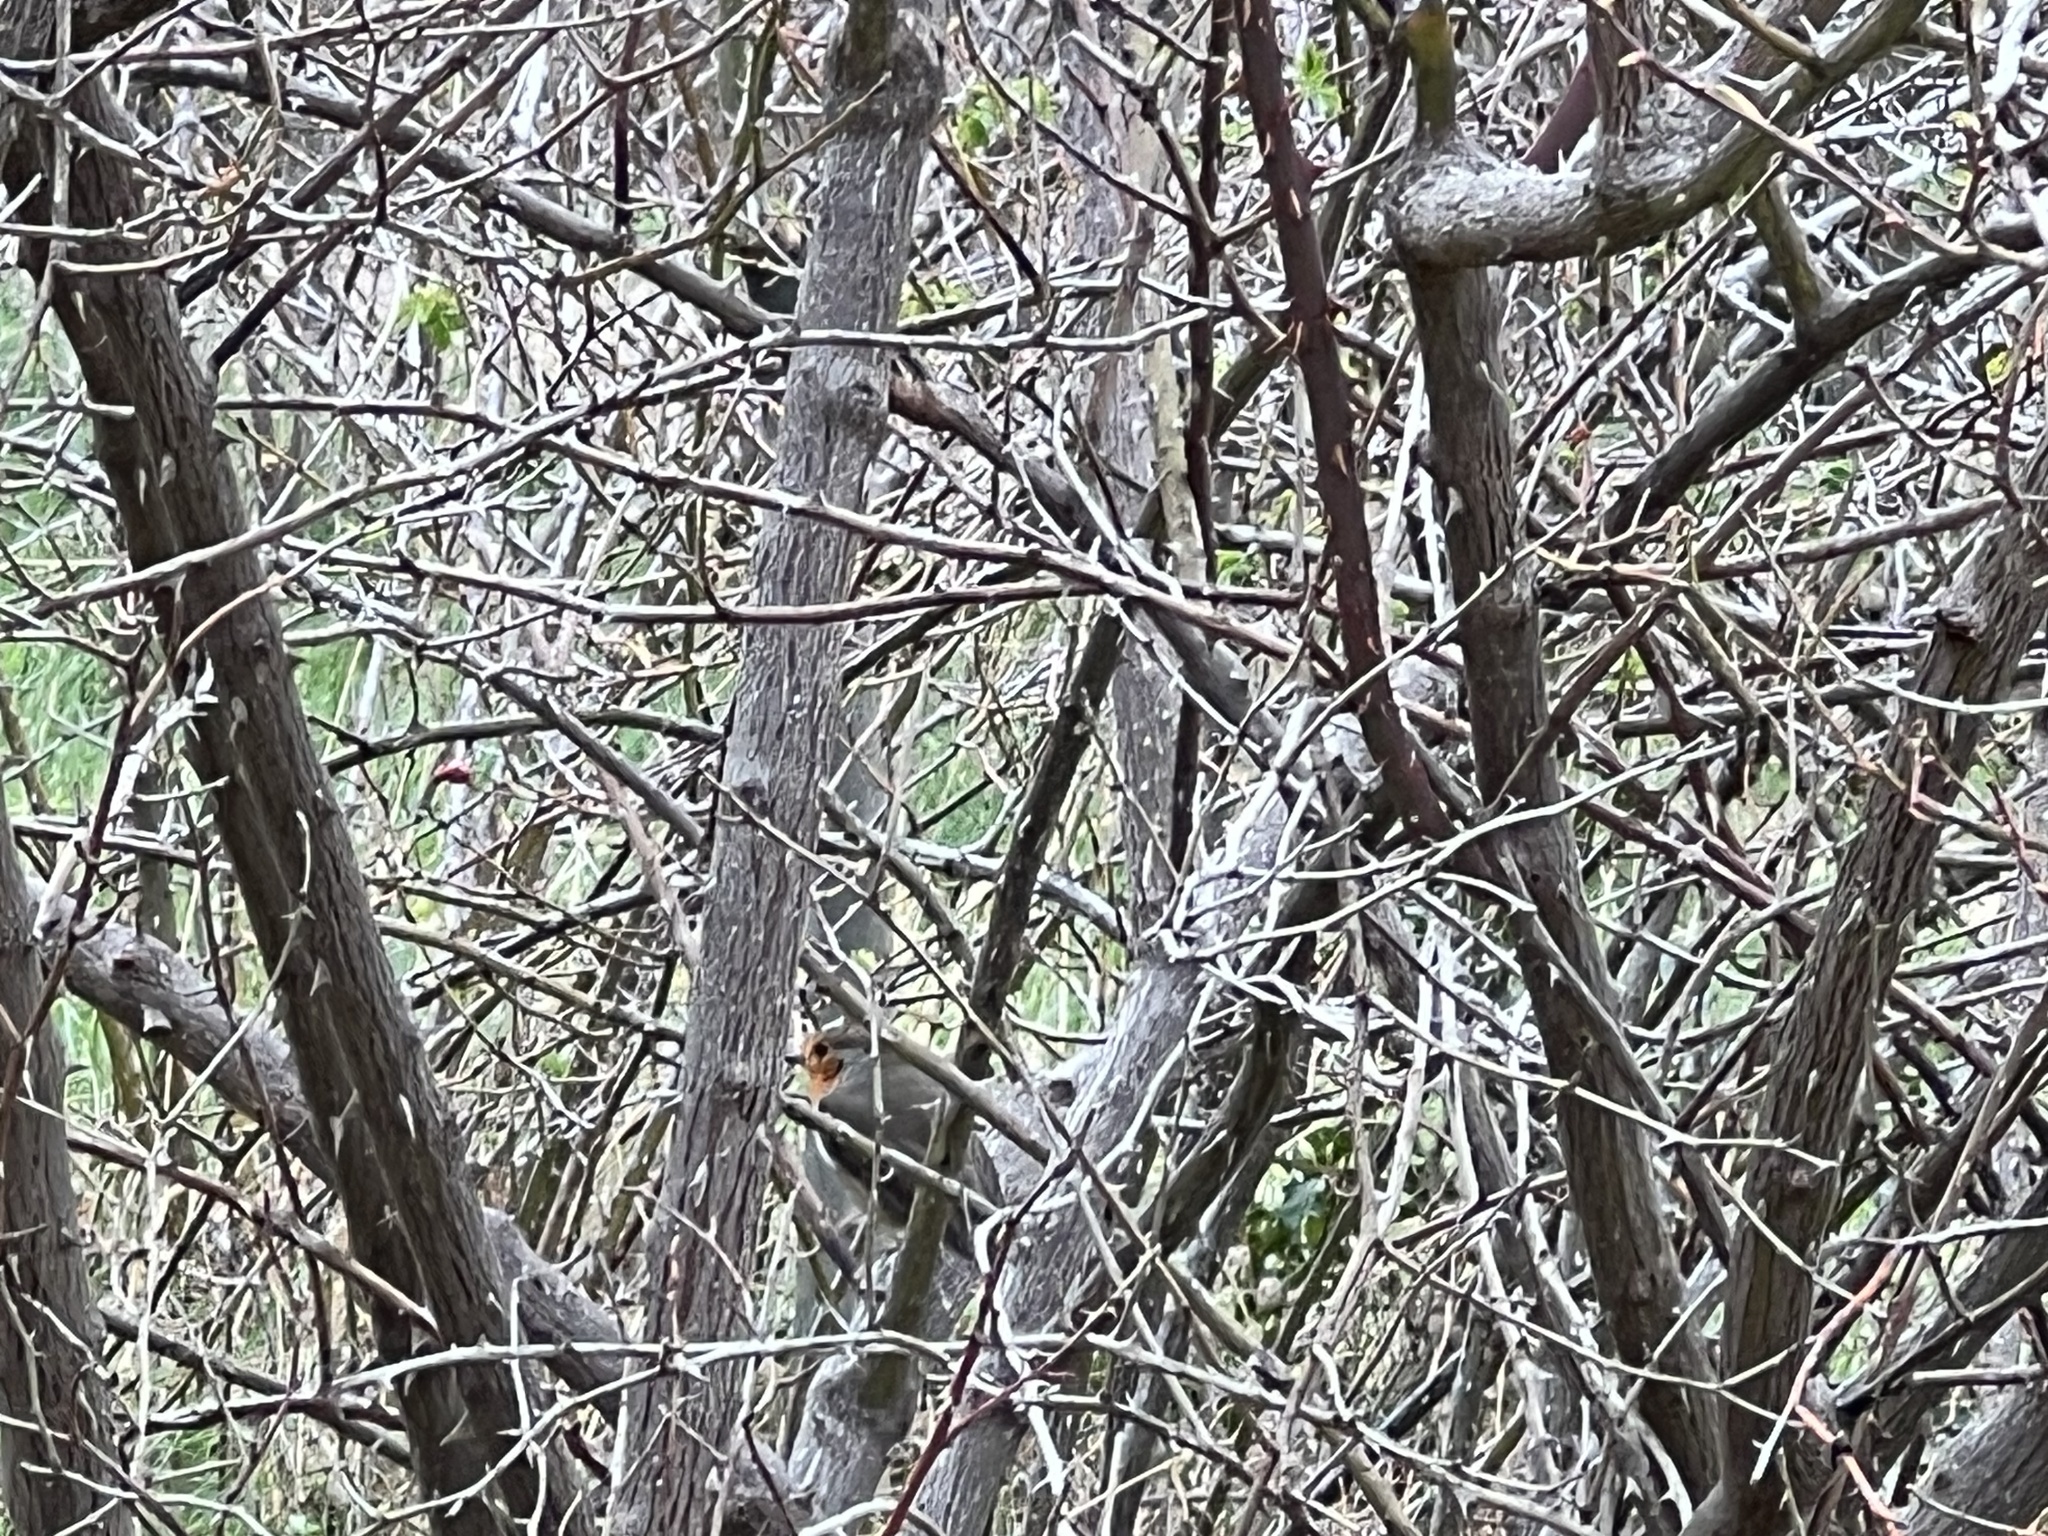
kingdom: Animalia
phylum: Chordata
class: Aves
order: Passeriformes
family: Muscicapidae
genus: Erithacus
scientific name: Erithacus rubecula
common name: European robin
